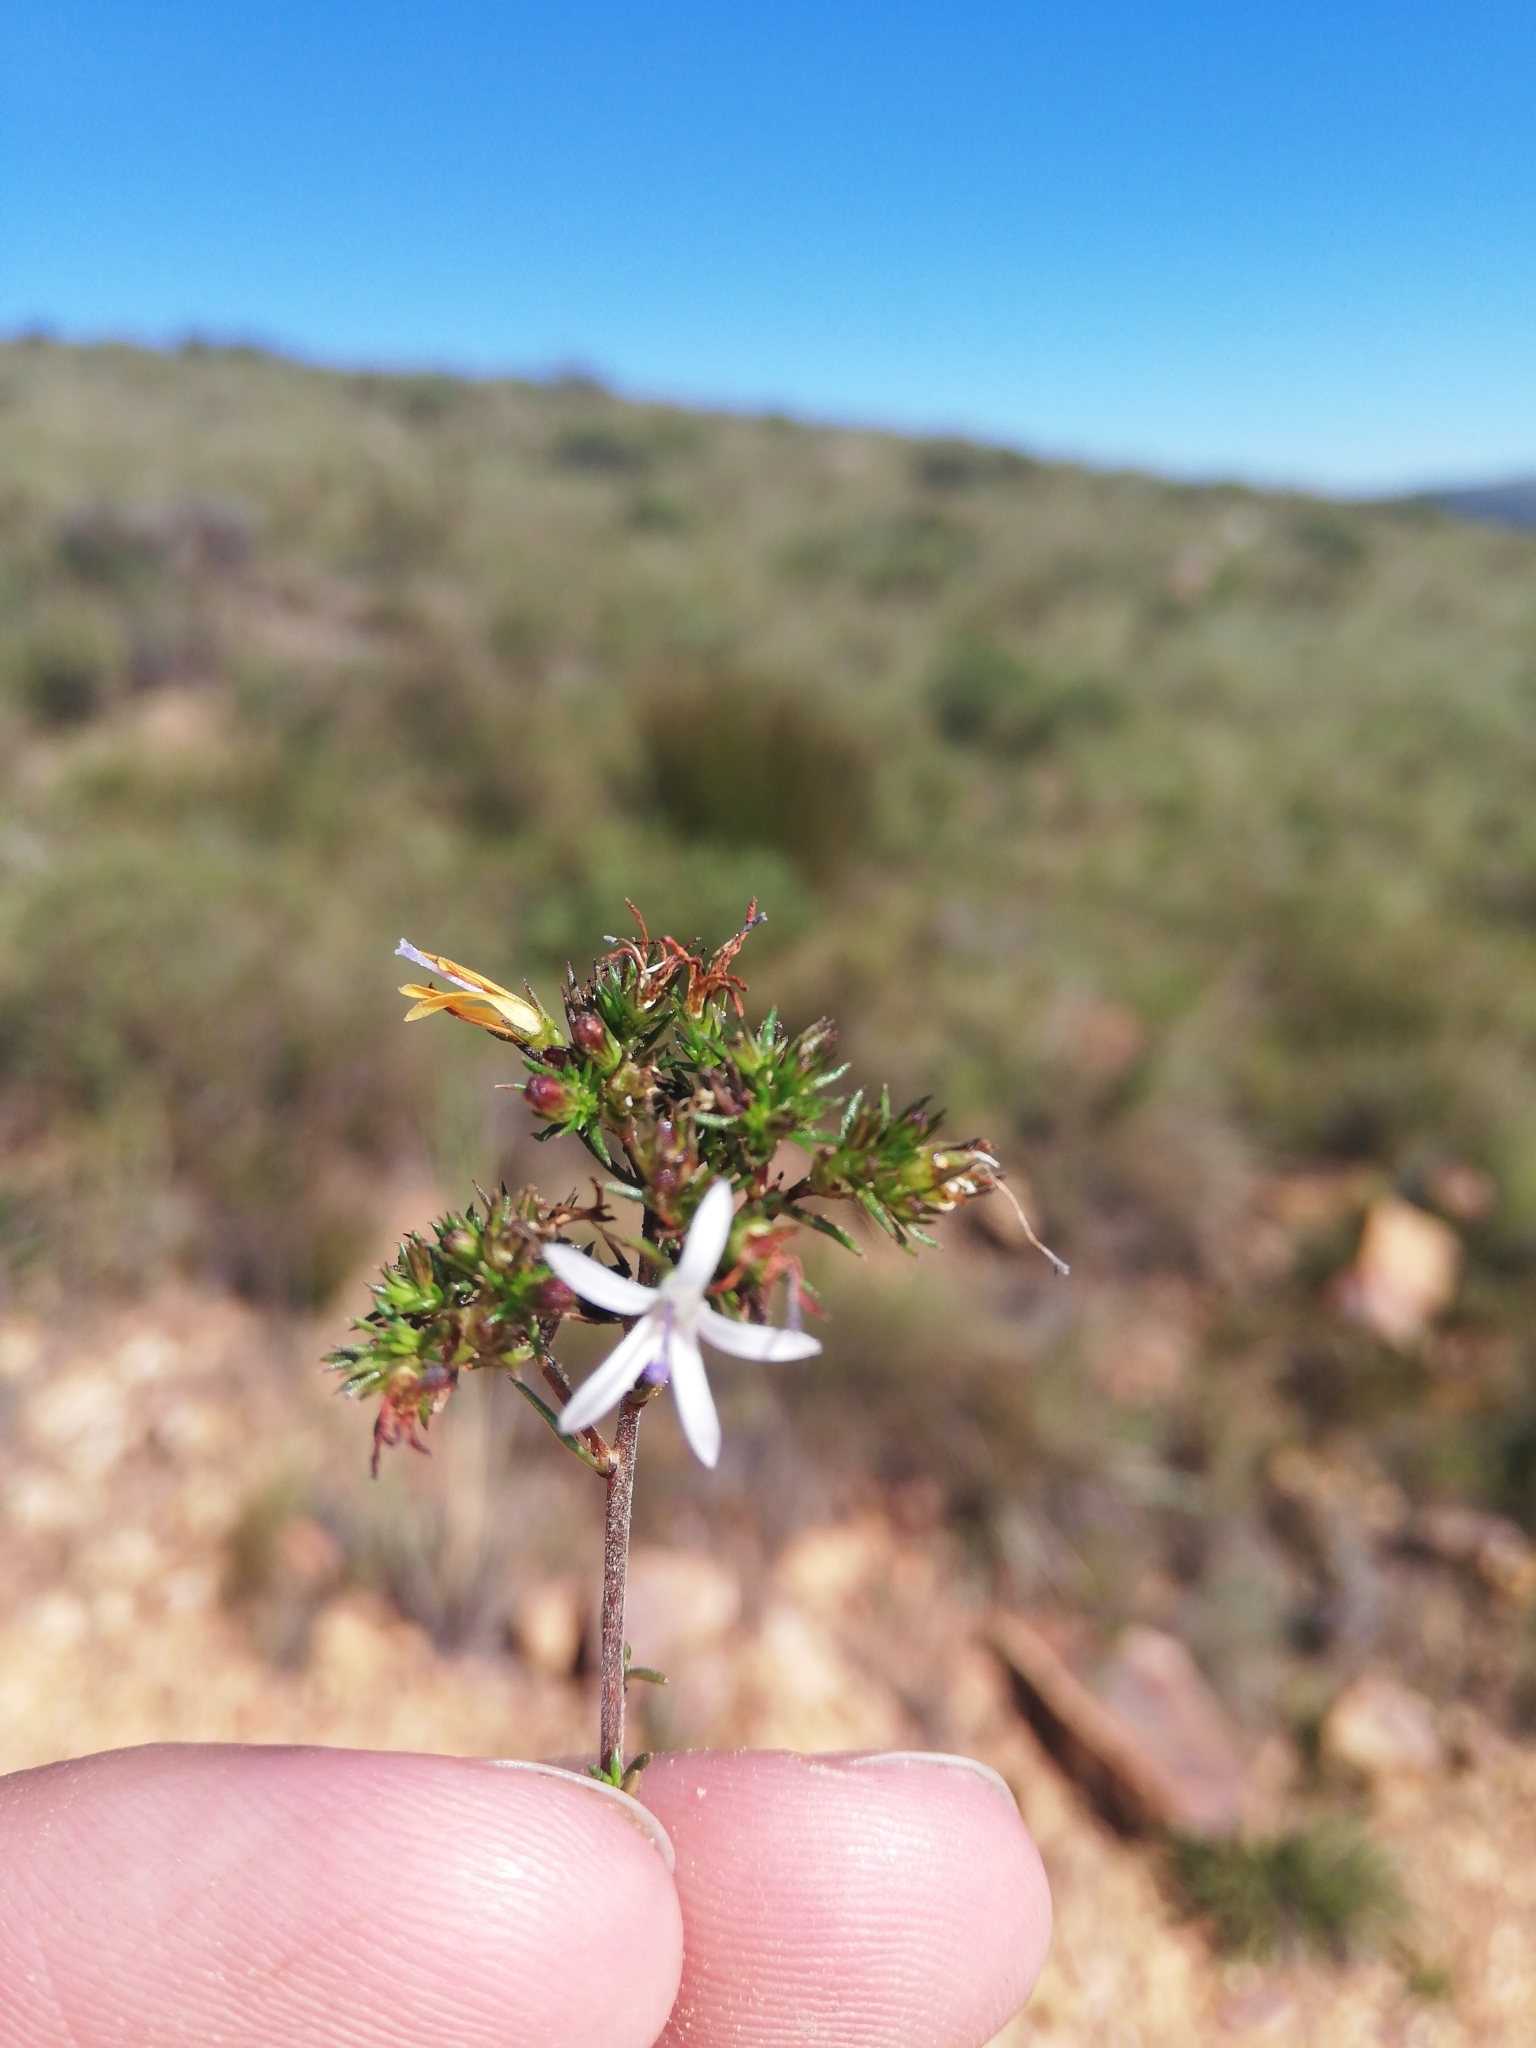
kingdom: Plantae
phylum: Tracheophyta
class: Magnoliopsida
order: Asterales
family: Campanulaceae
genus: Wahlenbergia
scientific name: Wahlenbergia rubens
